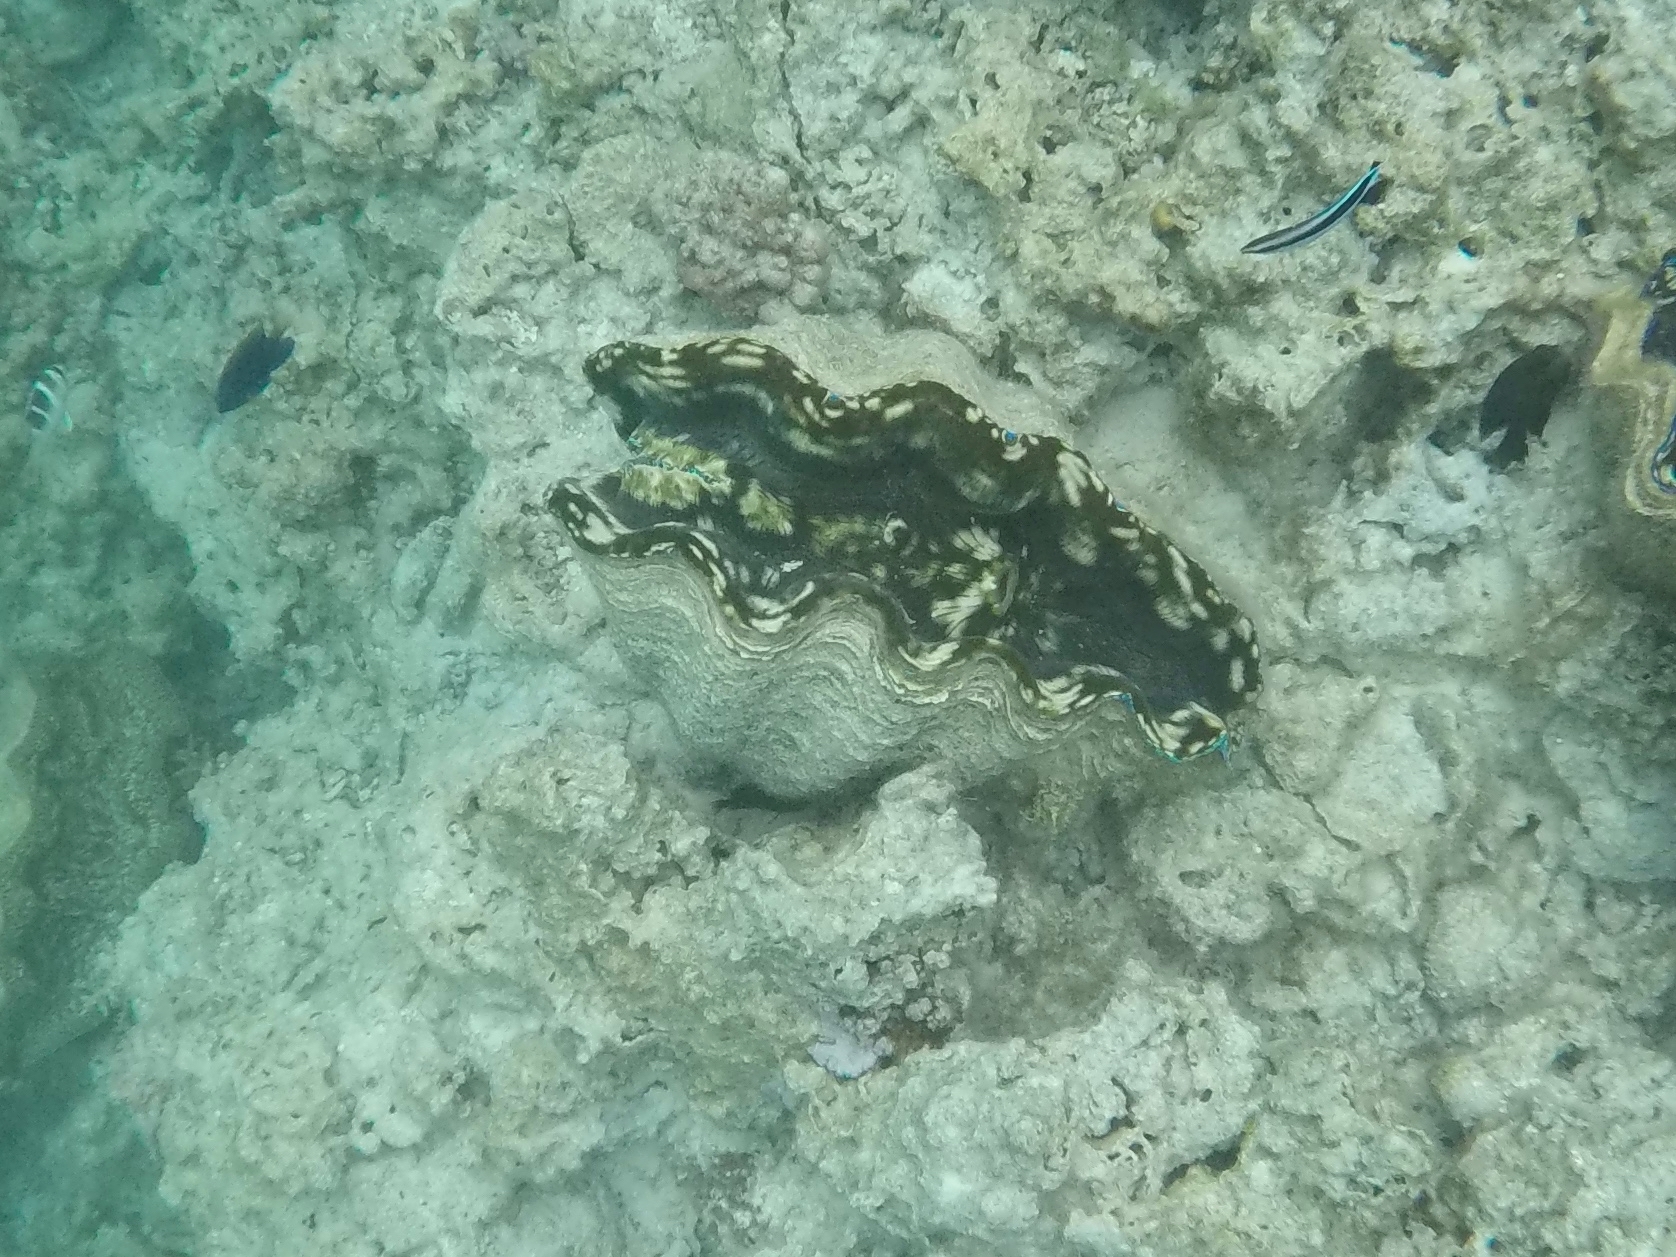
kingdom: Animalia
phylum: Mollusca
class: Bivalvia
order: Cardiida
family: Cardiidae
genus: Tridacna
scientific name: Tridacna derasa
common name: Southern giant clam
